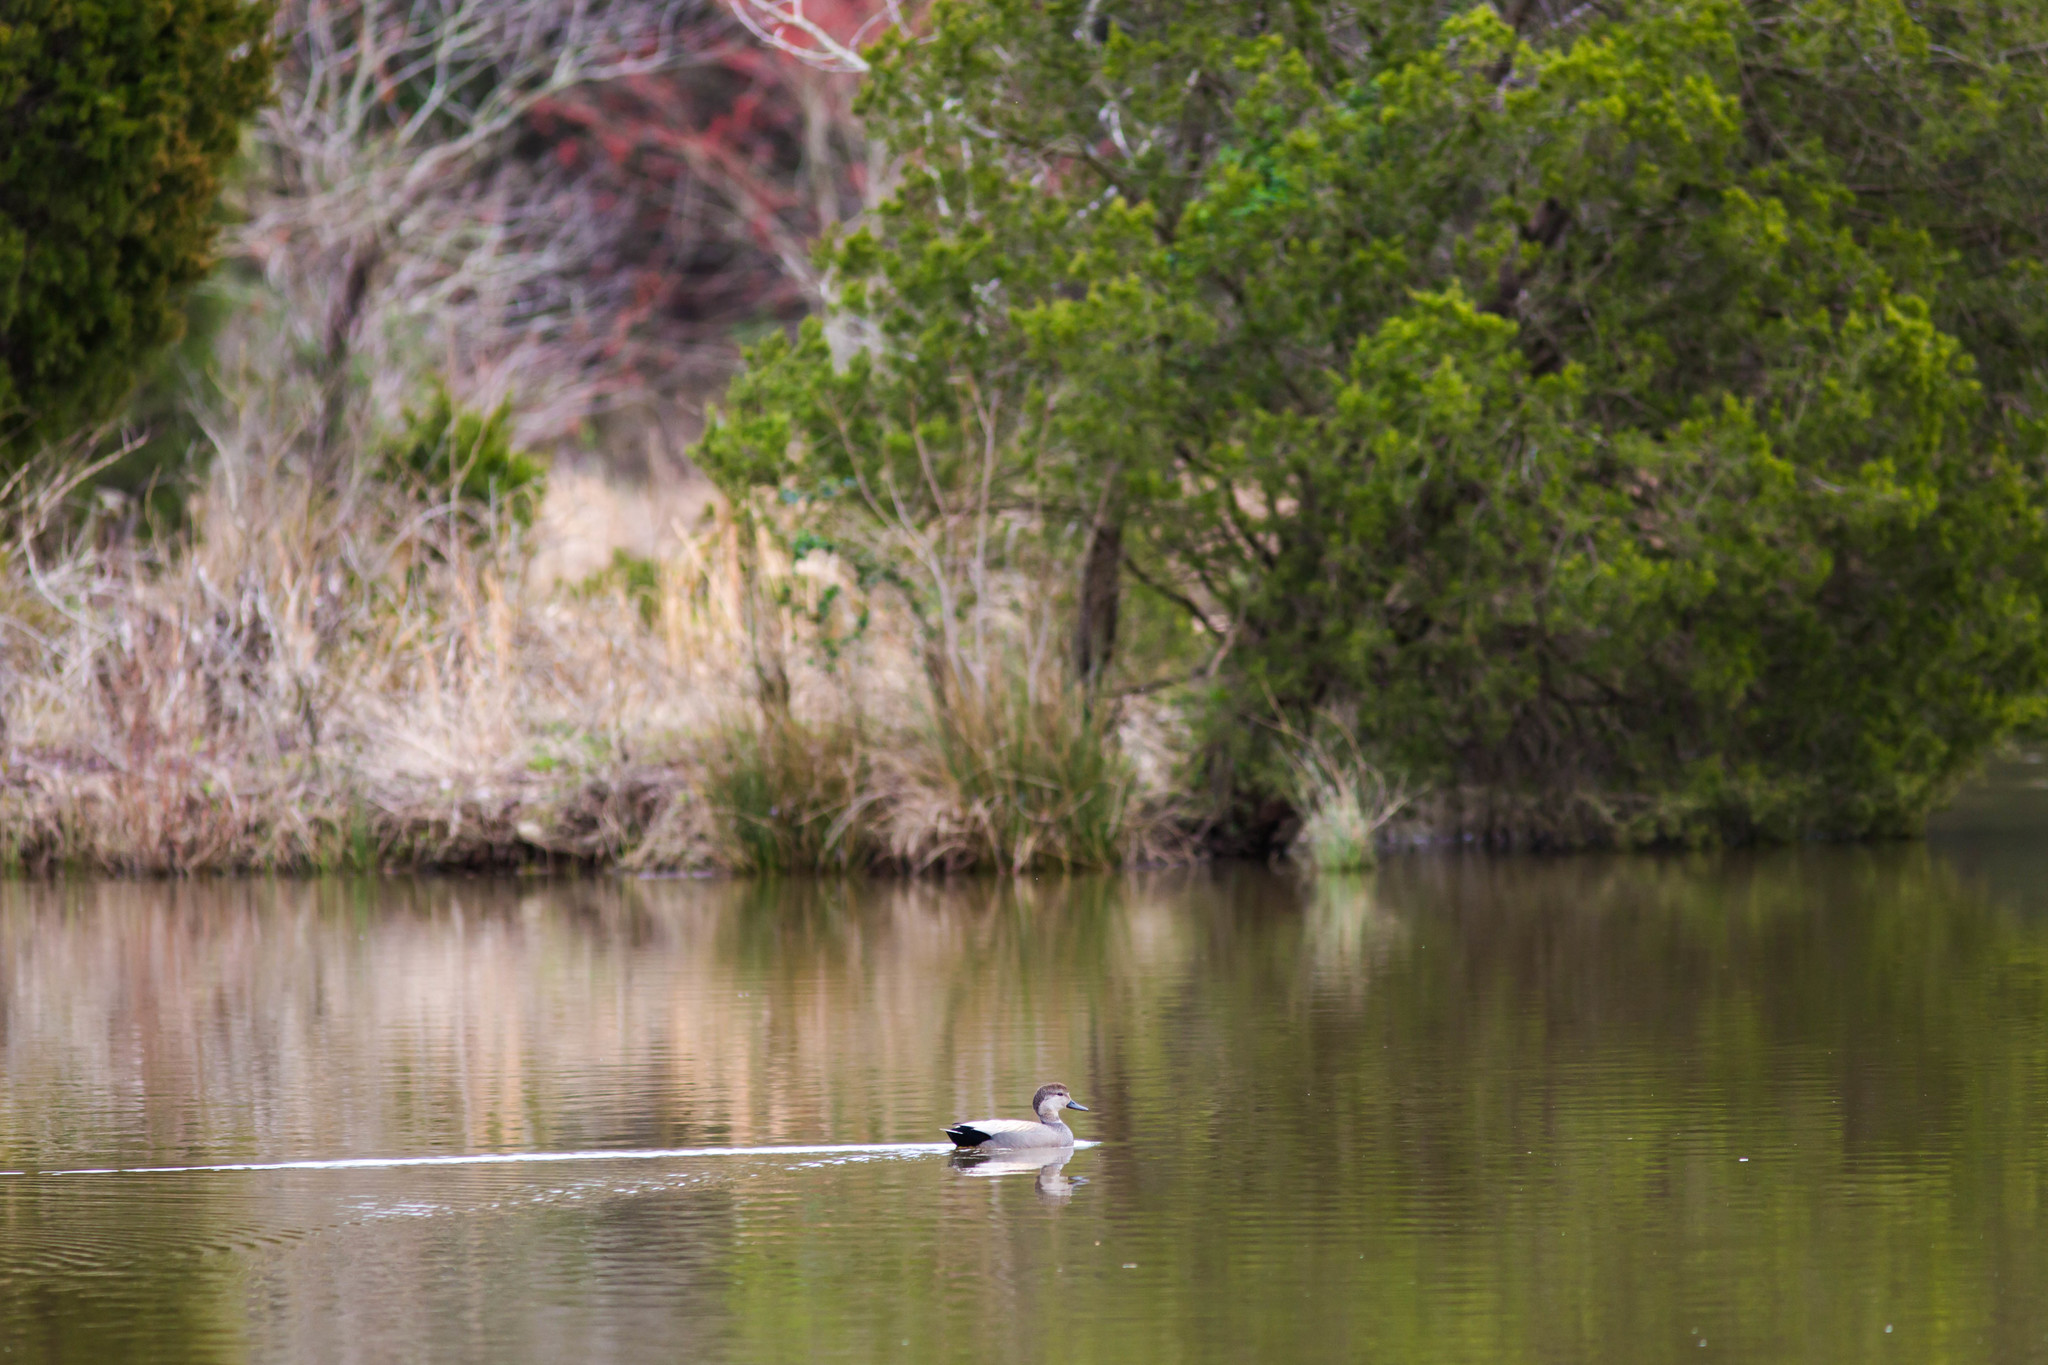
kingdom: Animalia
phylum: Chordata
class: Aves
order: Anseriformes
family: Anatidae
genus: Mareca
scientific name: Mareca strepera
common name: Gadwall
